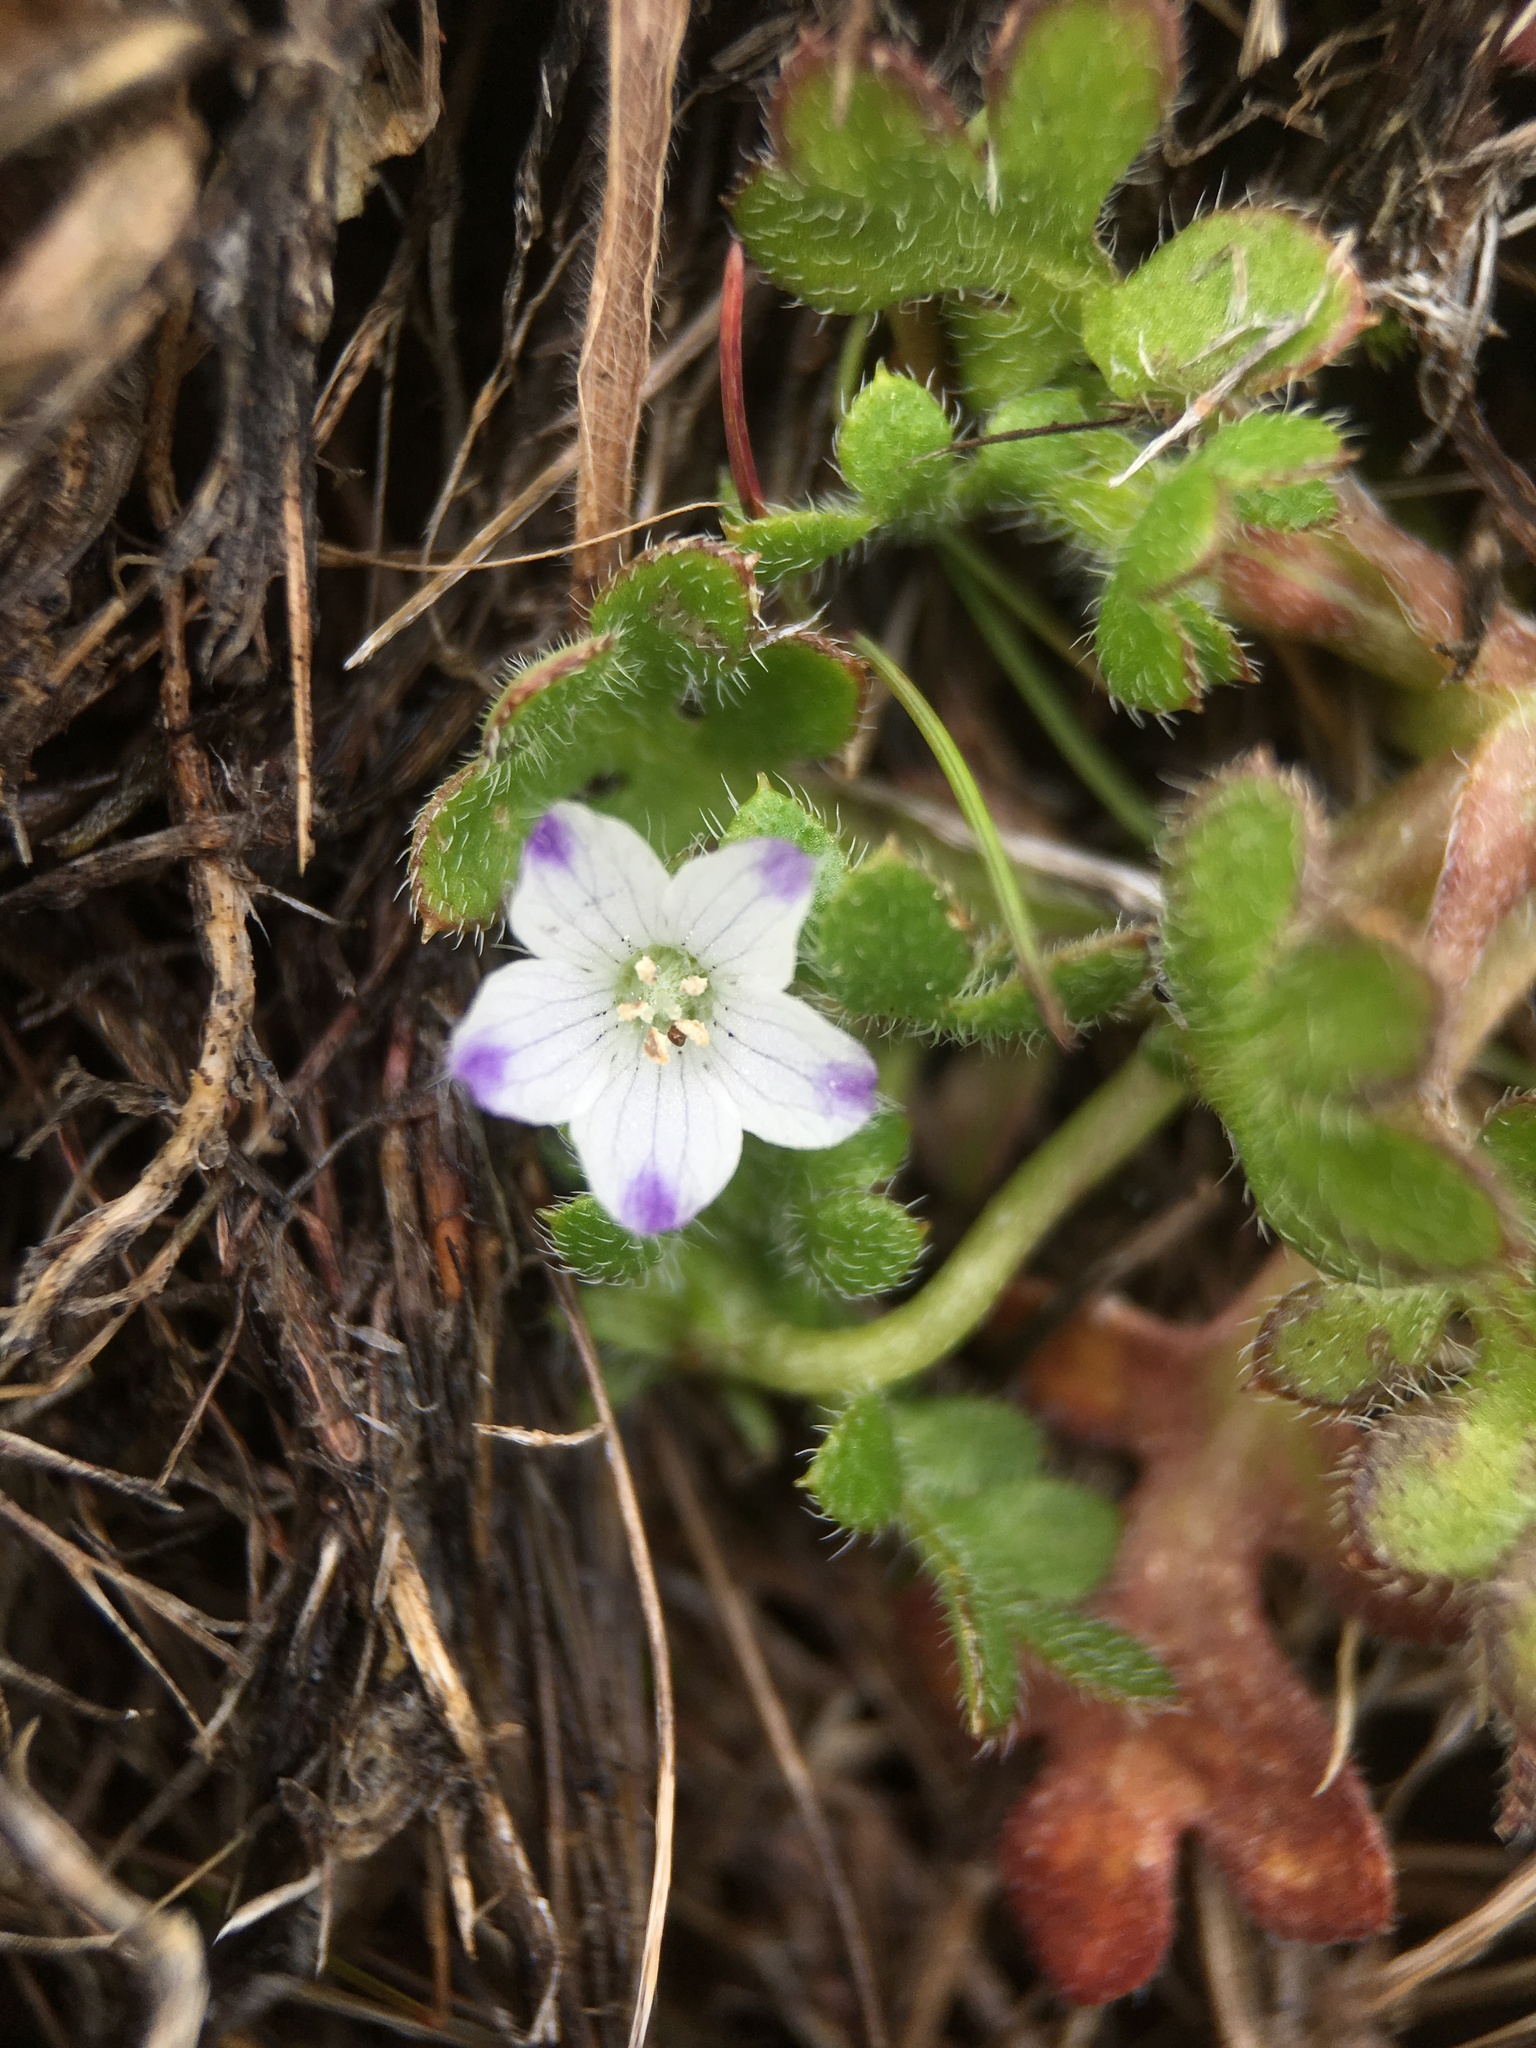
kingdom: Plantae
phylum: Tracheophyta
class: Magnoliopsida
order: Boraginales
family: Hydrophyllaceae
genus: Nemophila
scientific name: Nemophila maculata
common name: Fivespot
